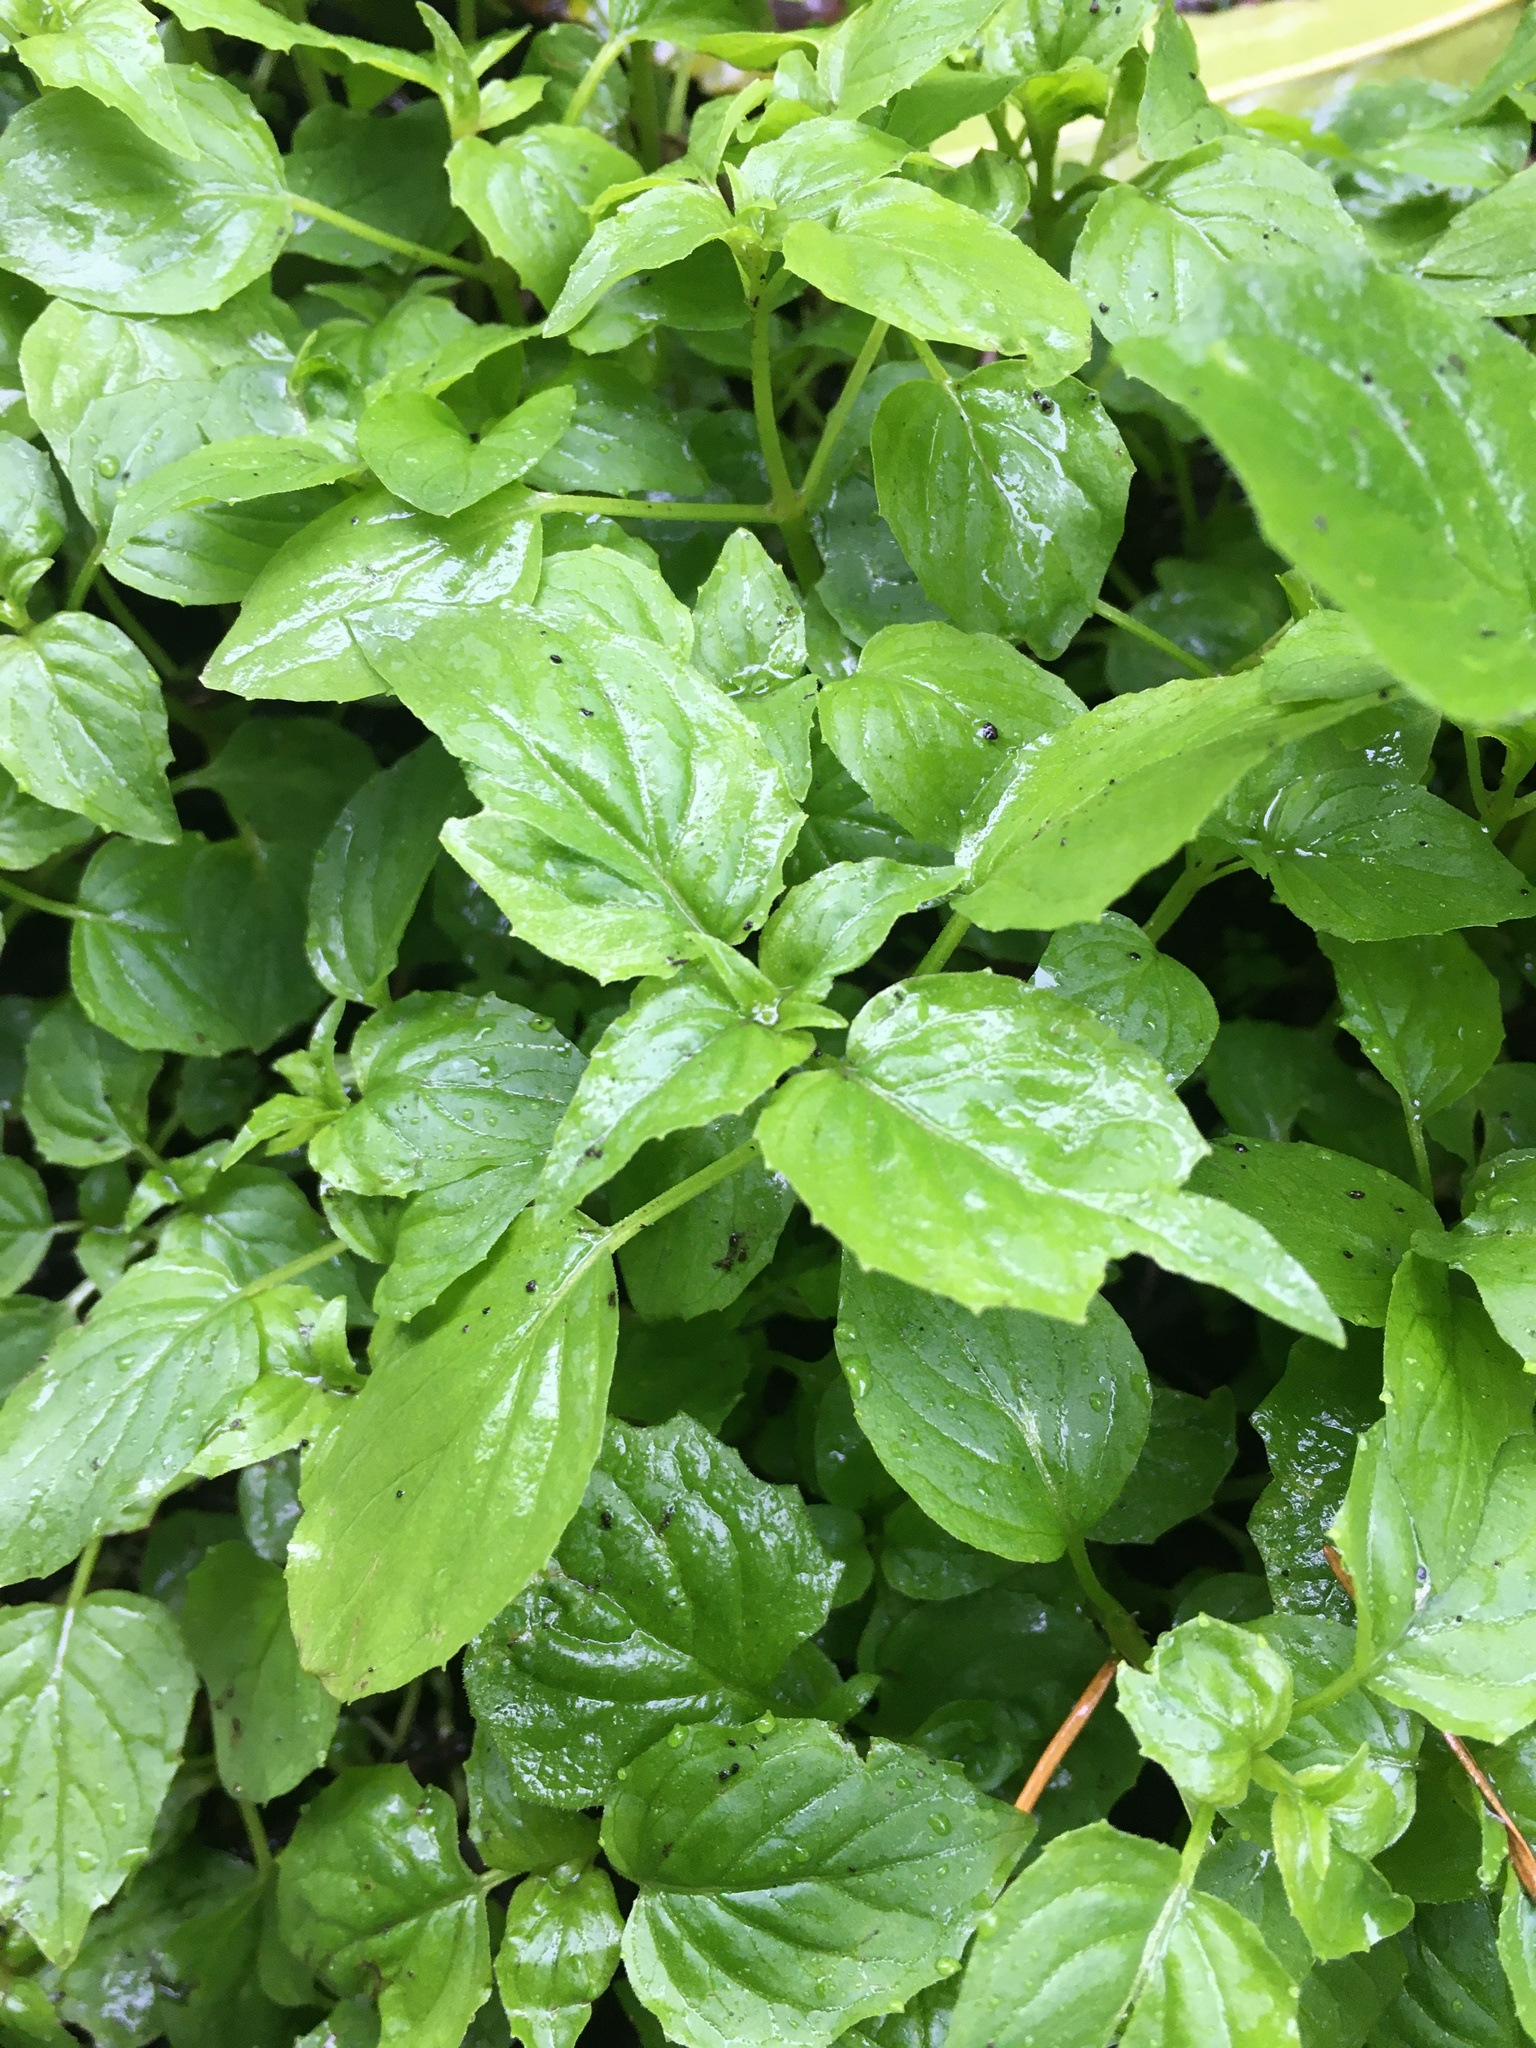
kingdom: Plantae
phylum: Tracheophyta
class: Magnoliopsida
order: Myrtales
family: Onagraceae
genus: Circaea
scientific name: Circaea alpina
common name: Alpine enchanter's-nightshade
